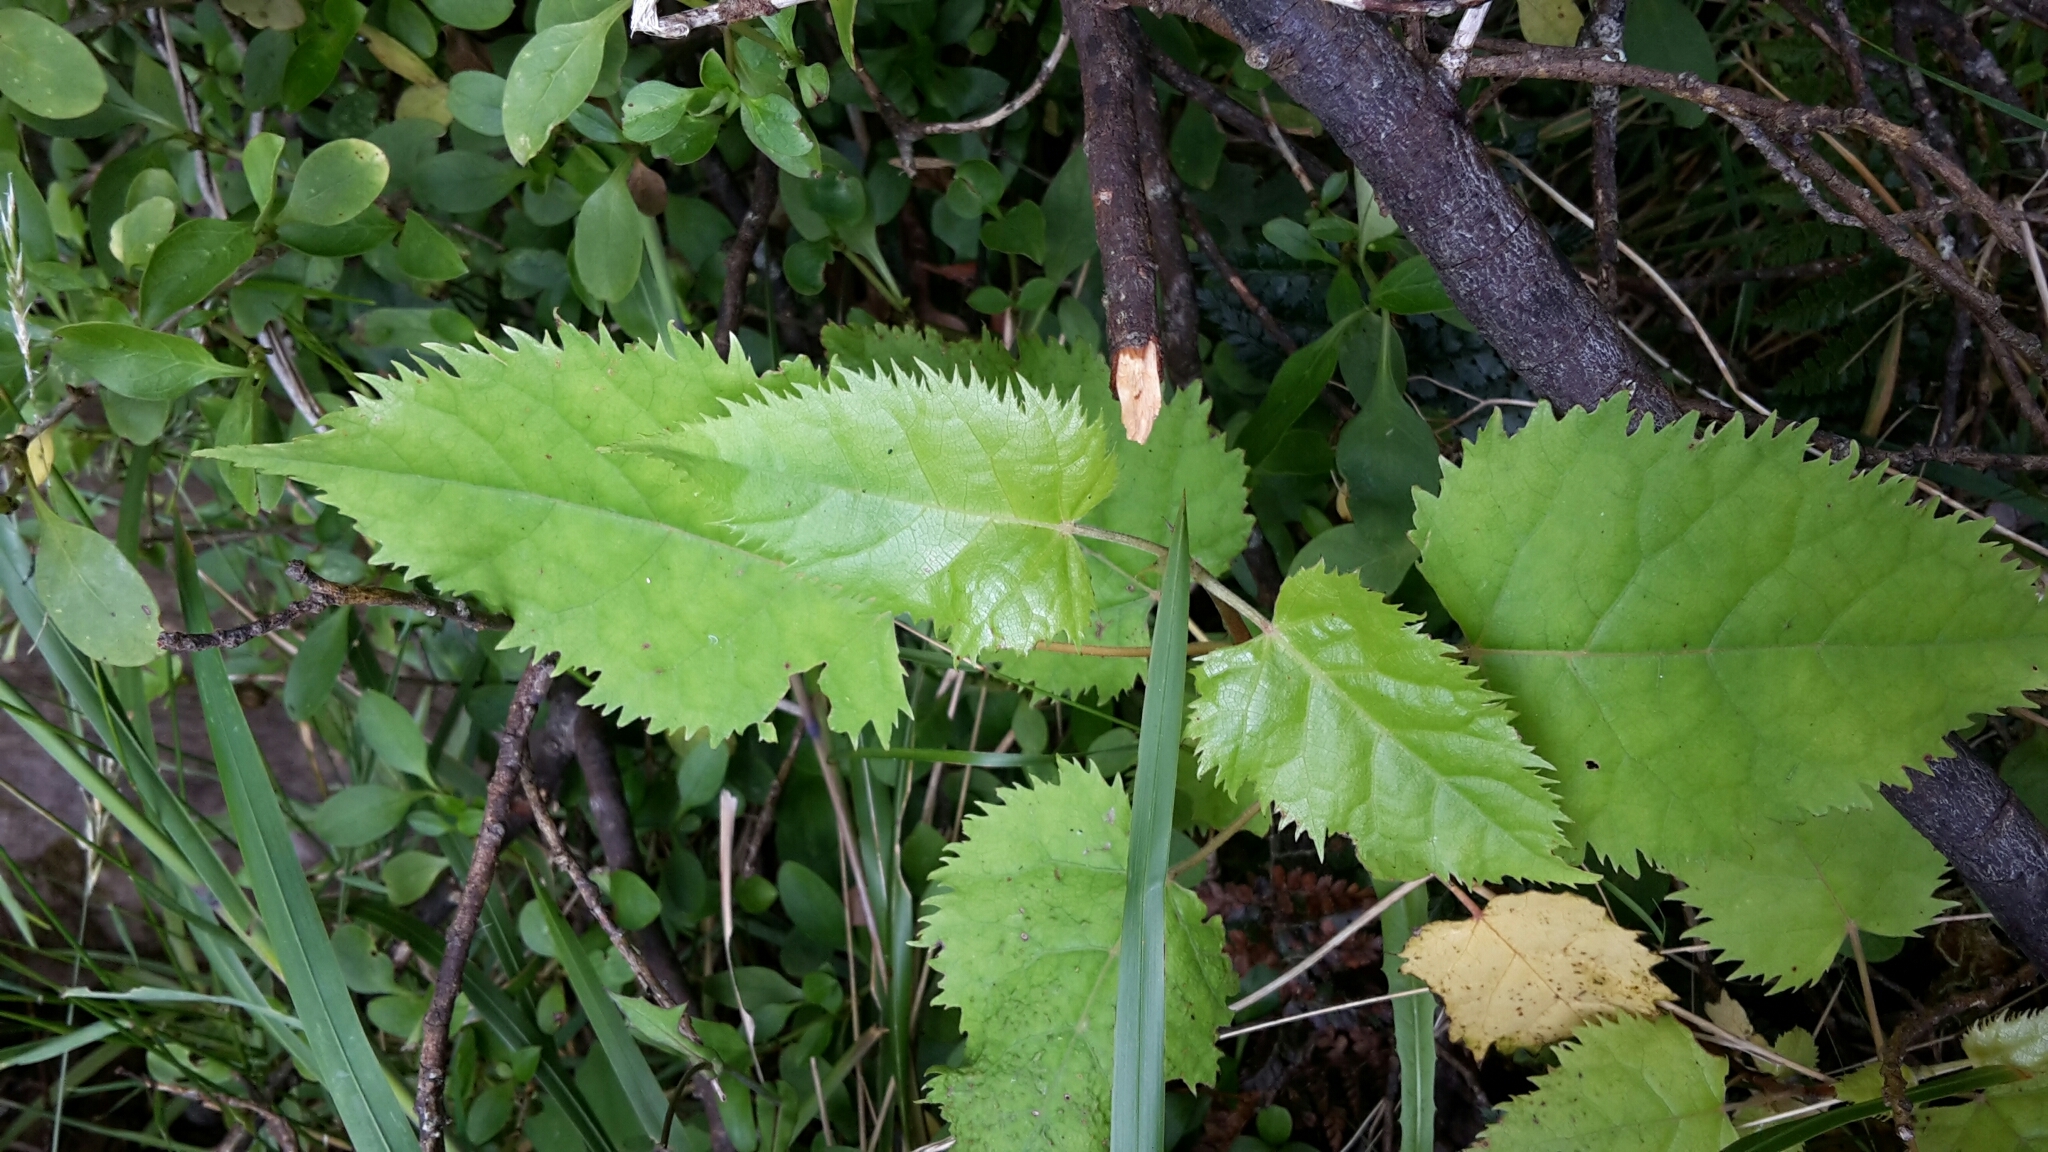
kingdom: Plantae
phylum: Tracheophyta
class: Magnoliopsida
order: Oxalidales
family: Elaeocarpaceae
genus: Aristotelia
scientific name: Aristotelia serrata
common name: New zealand wineberry
